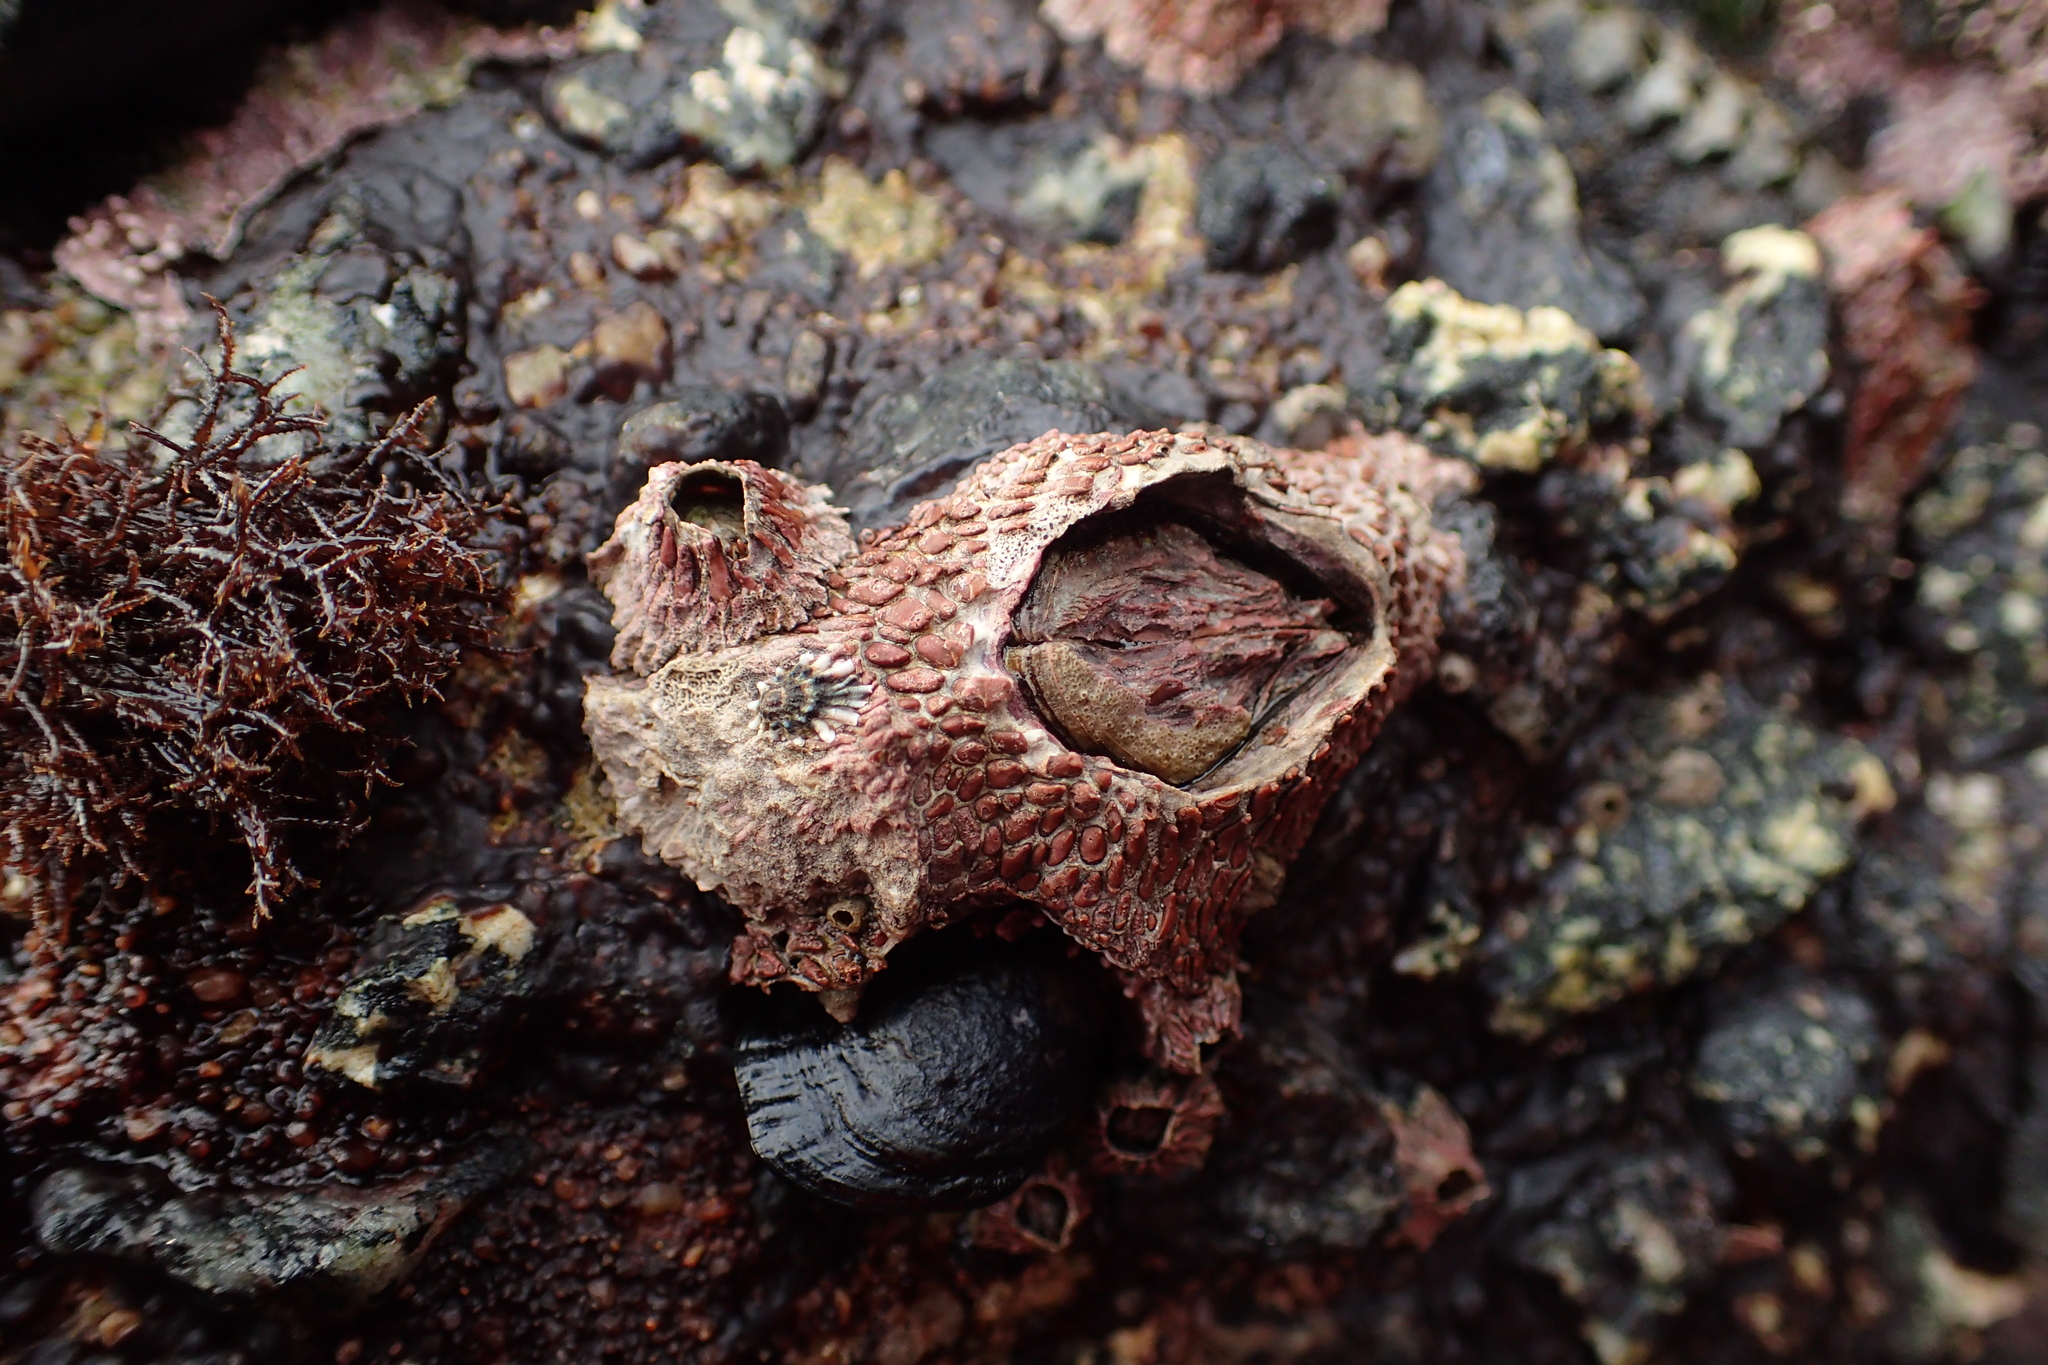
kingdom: Animalia
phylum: Arthropoda
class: Maxillopoda
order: Sessilia
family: Tetraclitidae
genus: Tetraclita
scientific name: Tetraclita rubescens
